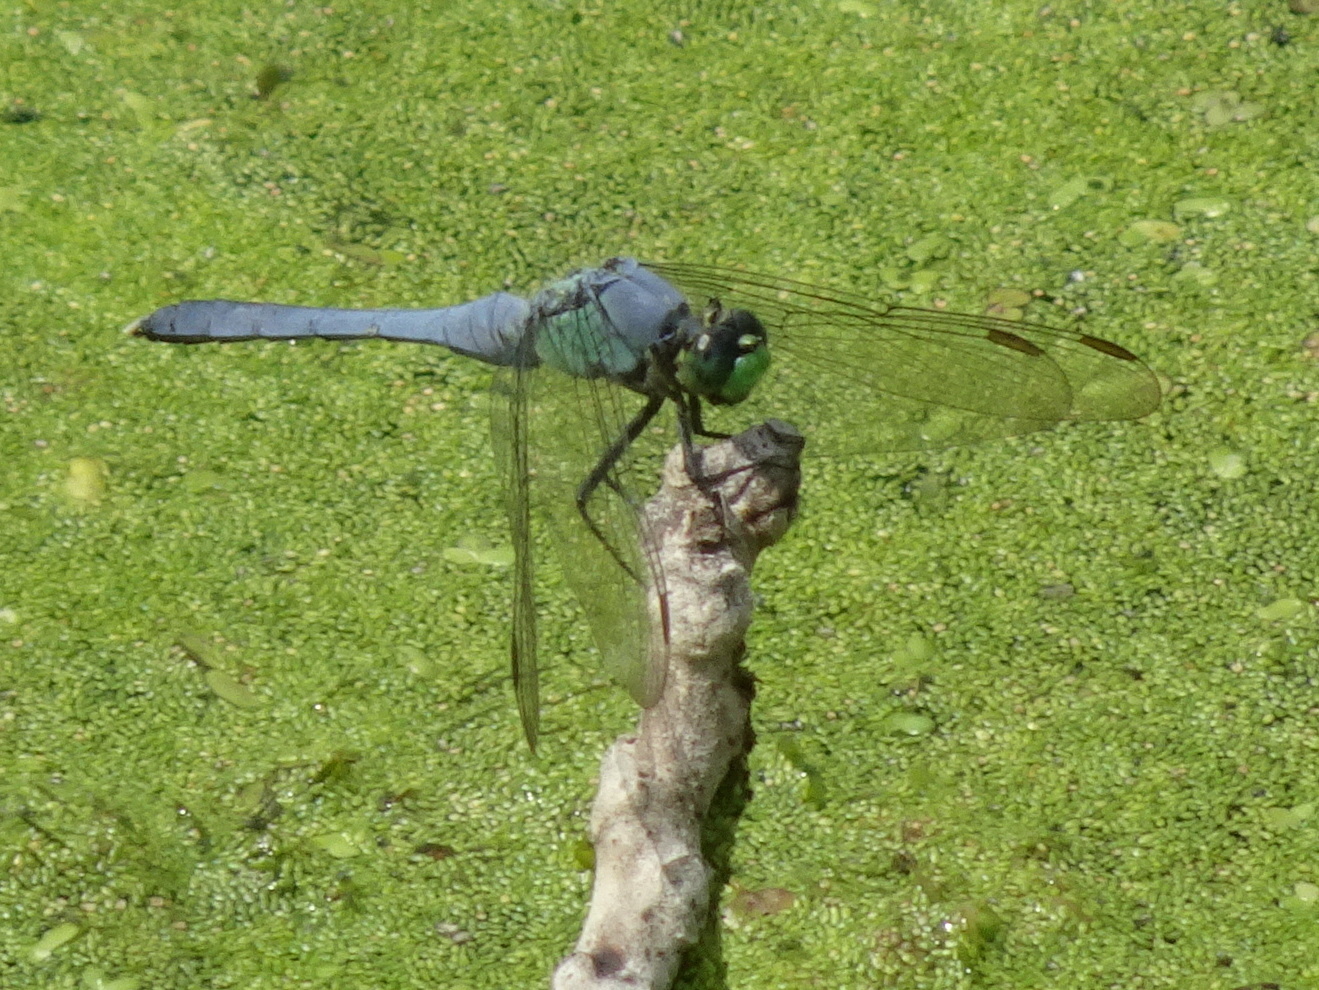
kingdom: Animalia
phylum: Arthropoda
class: Insecta
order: Odonata
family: Libellulidae
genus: Erythemis
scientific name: Erythemis simplicicollis
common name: Eastern pondhawk
